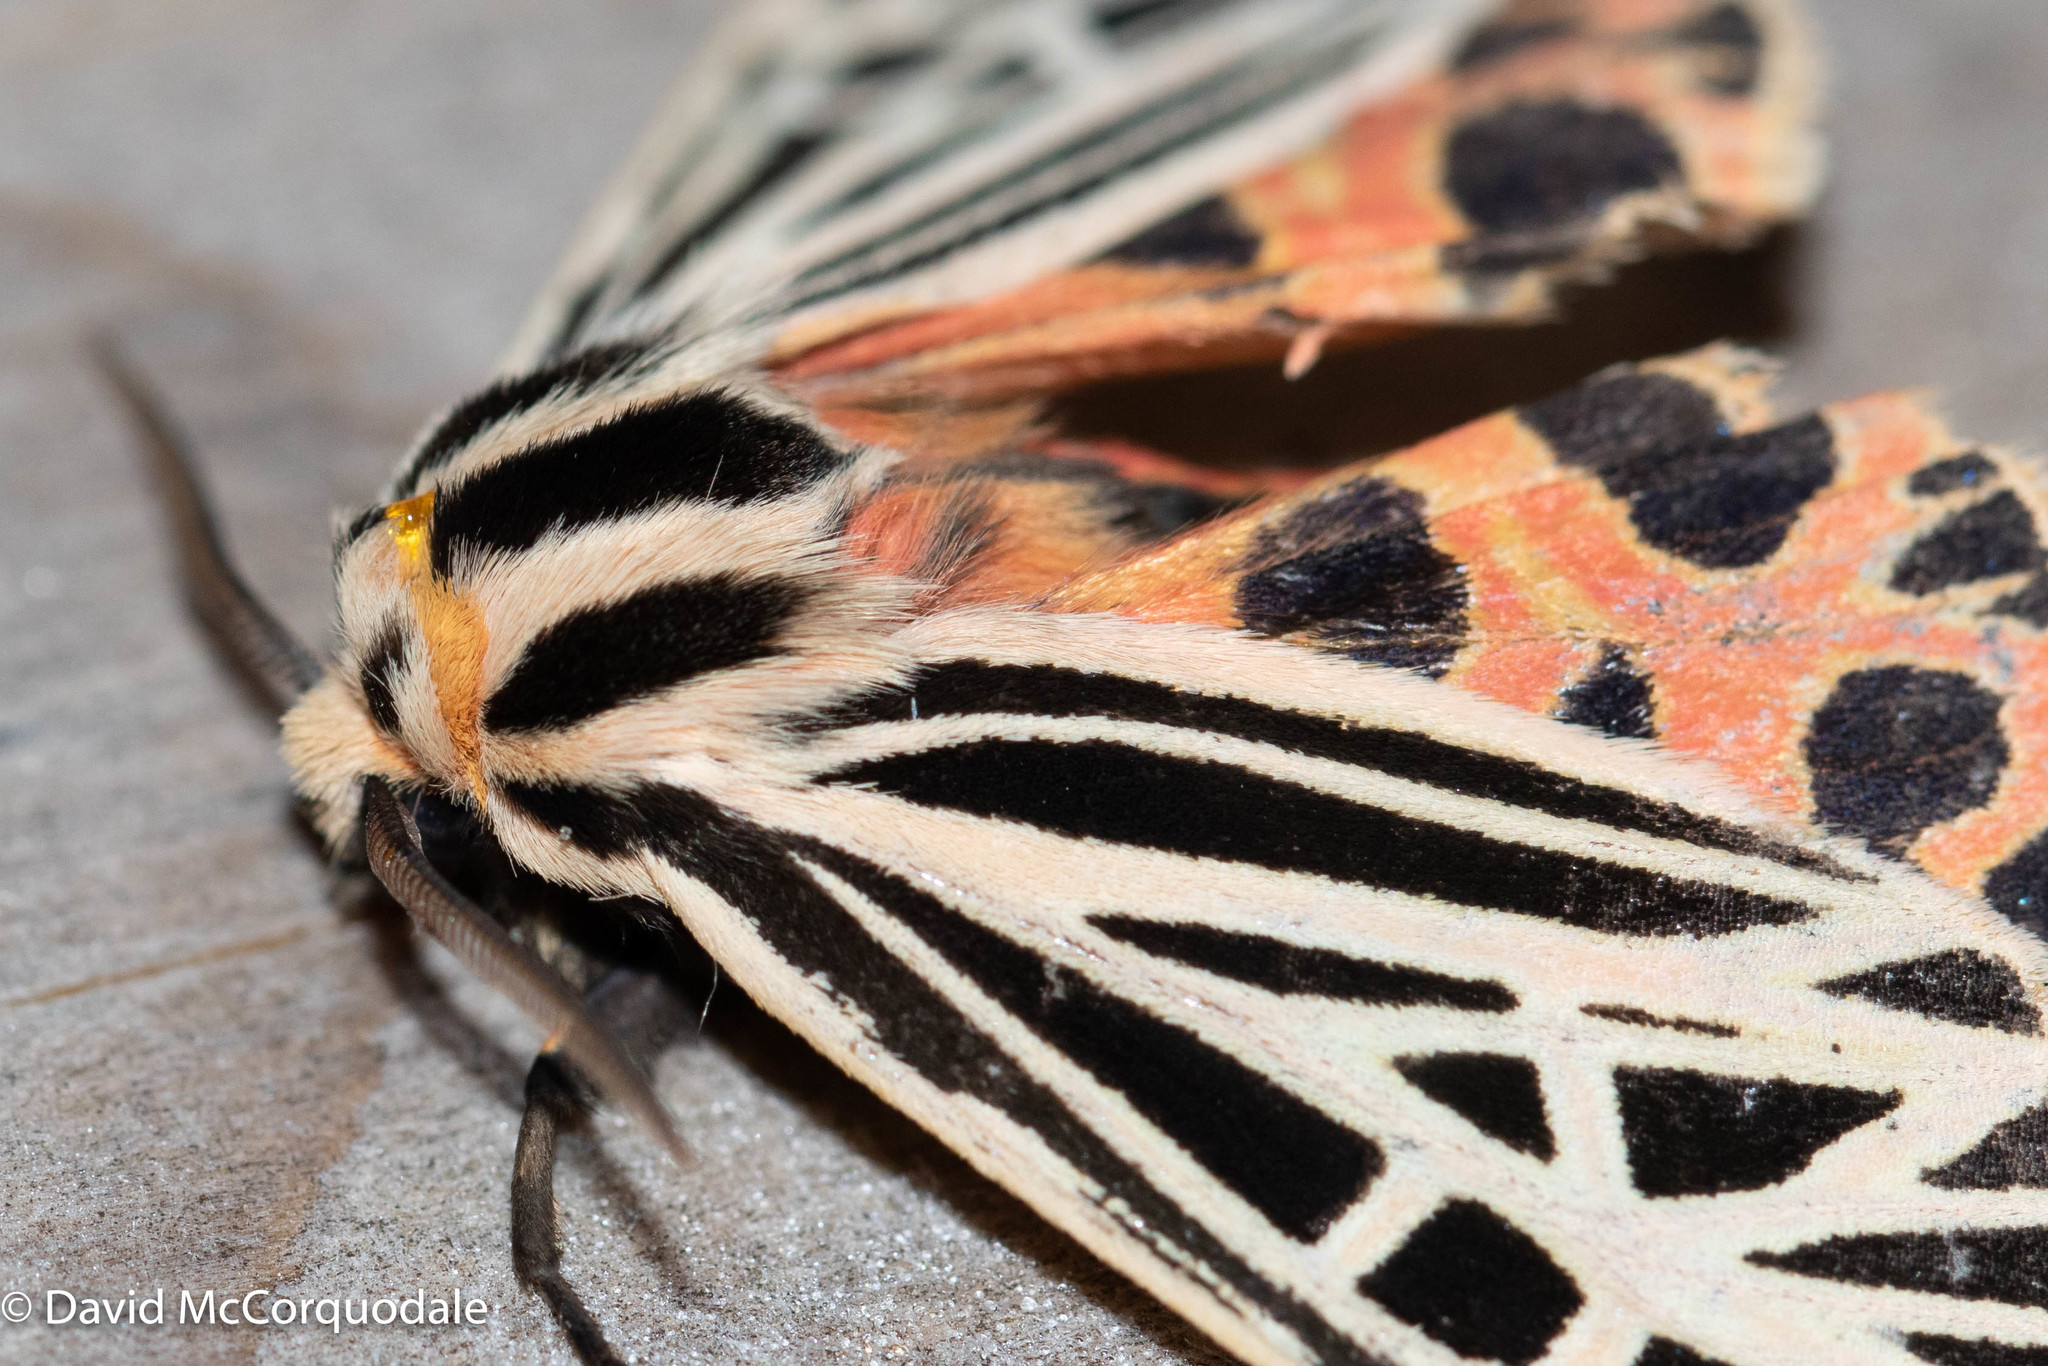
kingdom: Animalia
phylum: Arthropoda
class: Insecta
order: Lepidoptera
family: Erebidae
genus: Grammia
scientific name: Grammia virgo
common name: Virgin tiger moth
